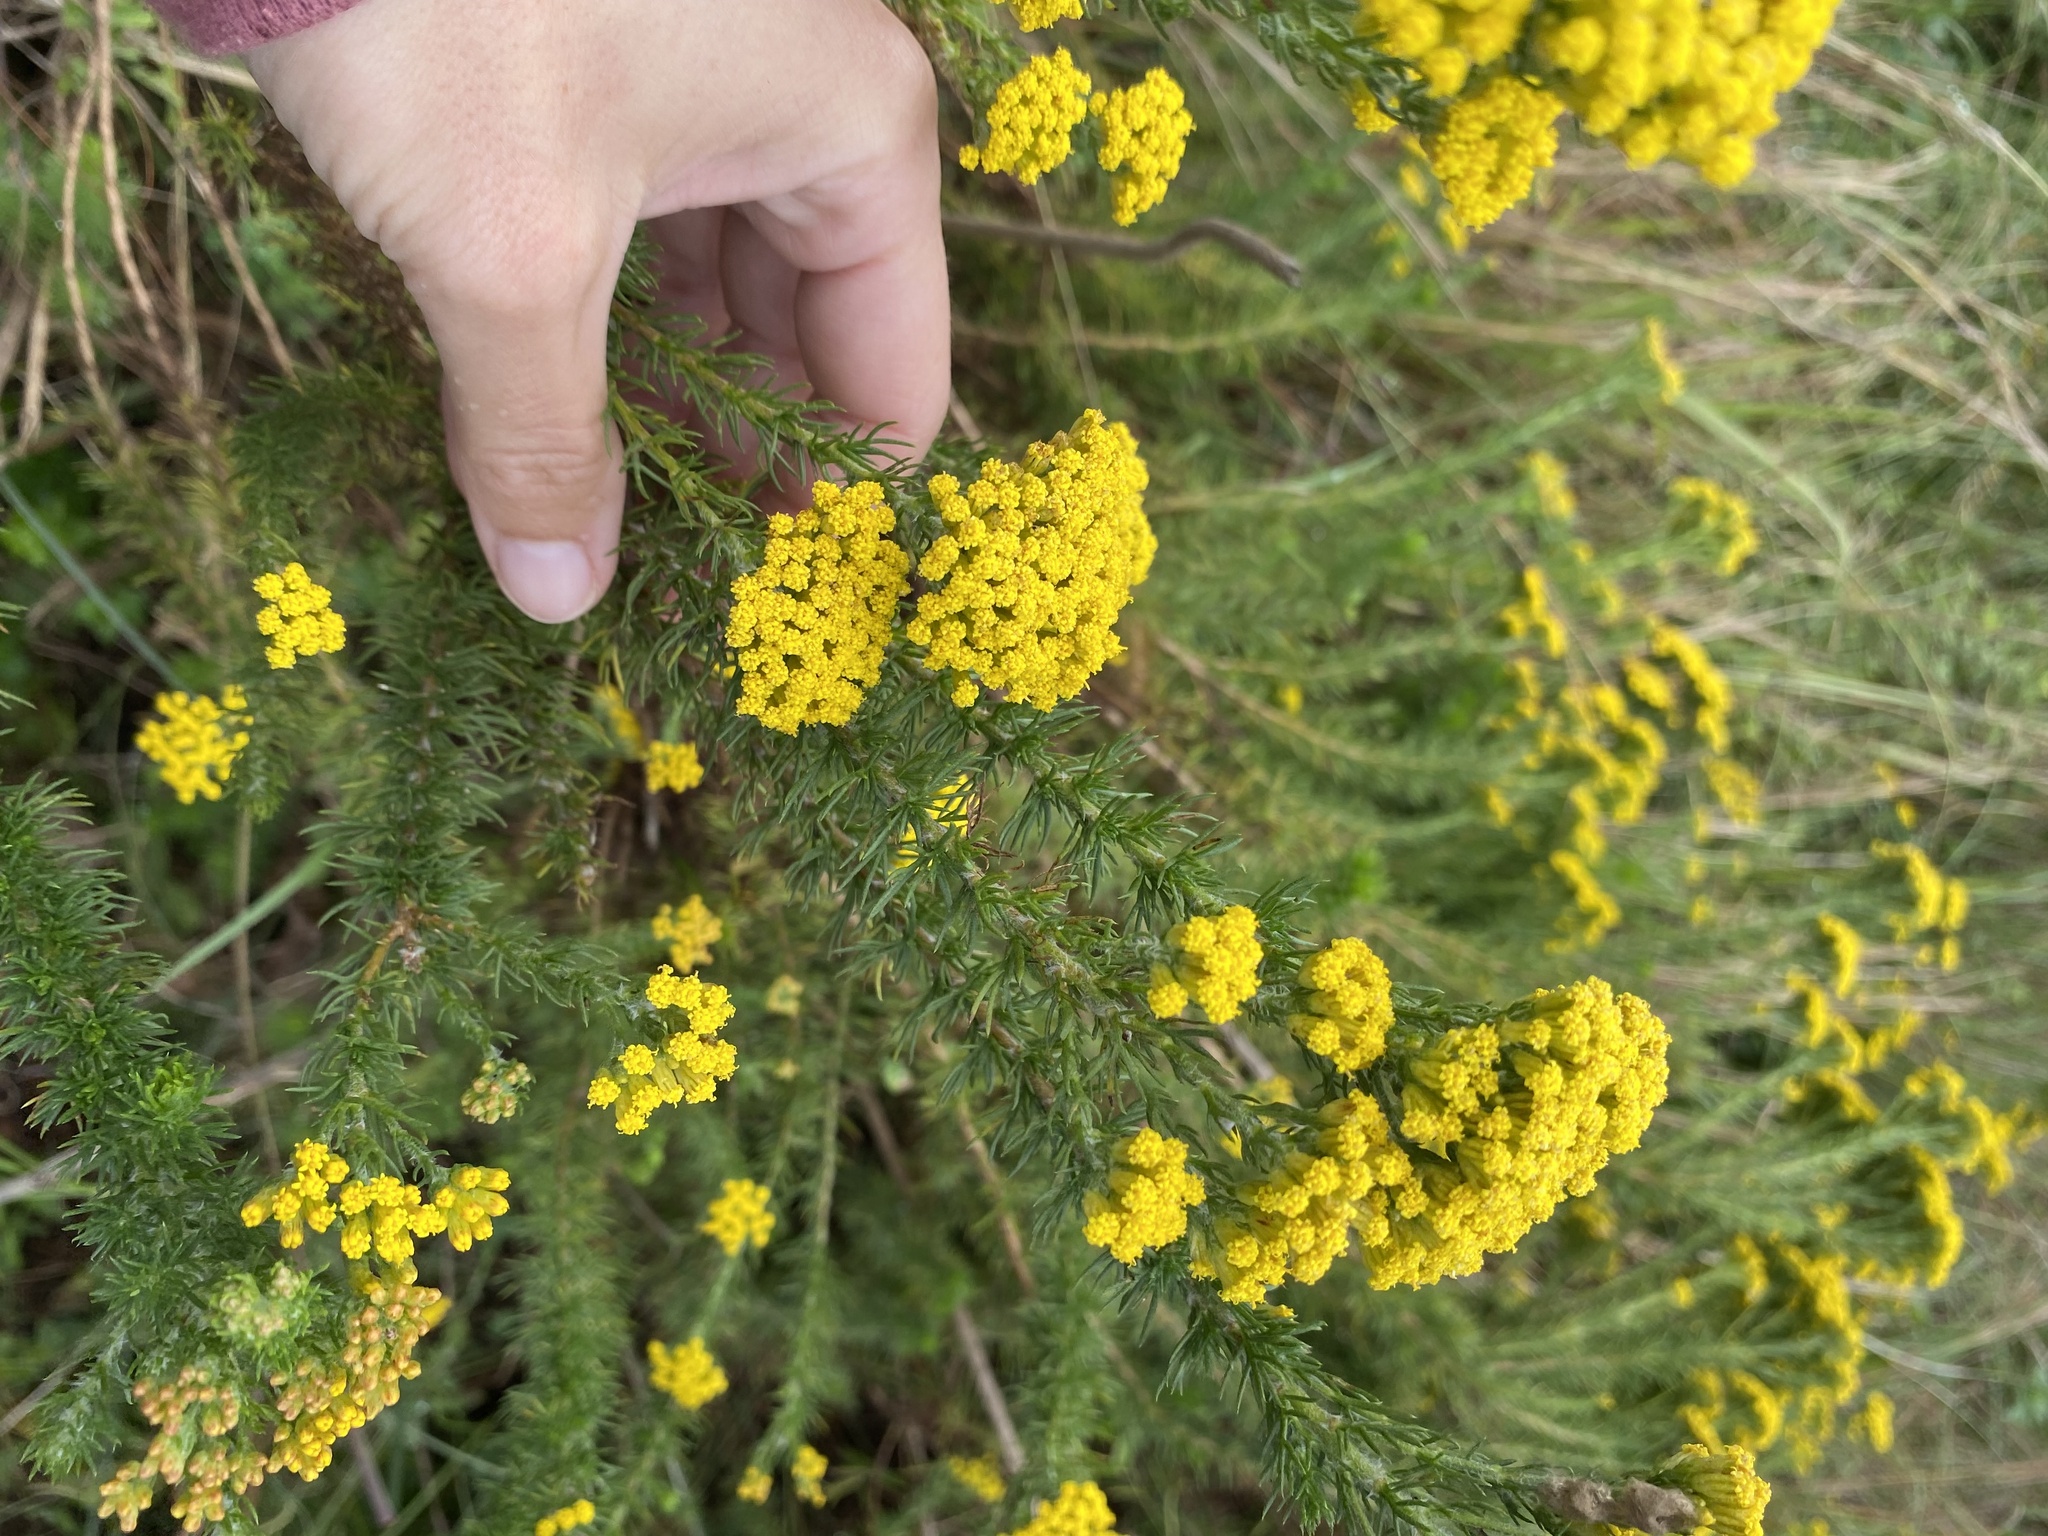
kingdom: Plantae
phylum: Tracheophyta
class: Magnoliopsida
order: Asterales
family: Asteraceae
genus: Phymaspermum
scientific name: Phymaspermum acerosum
